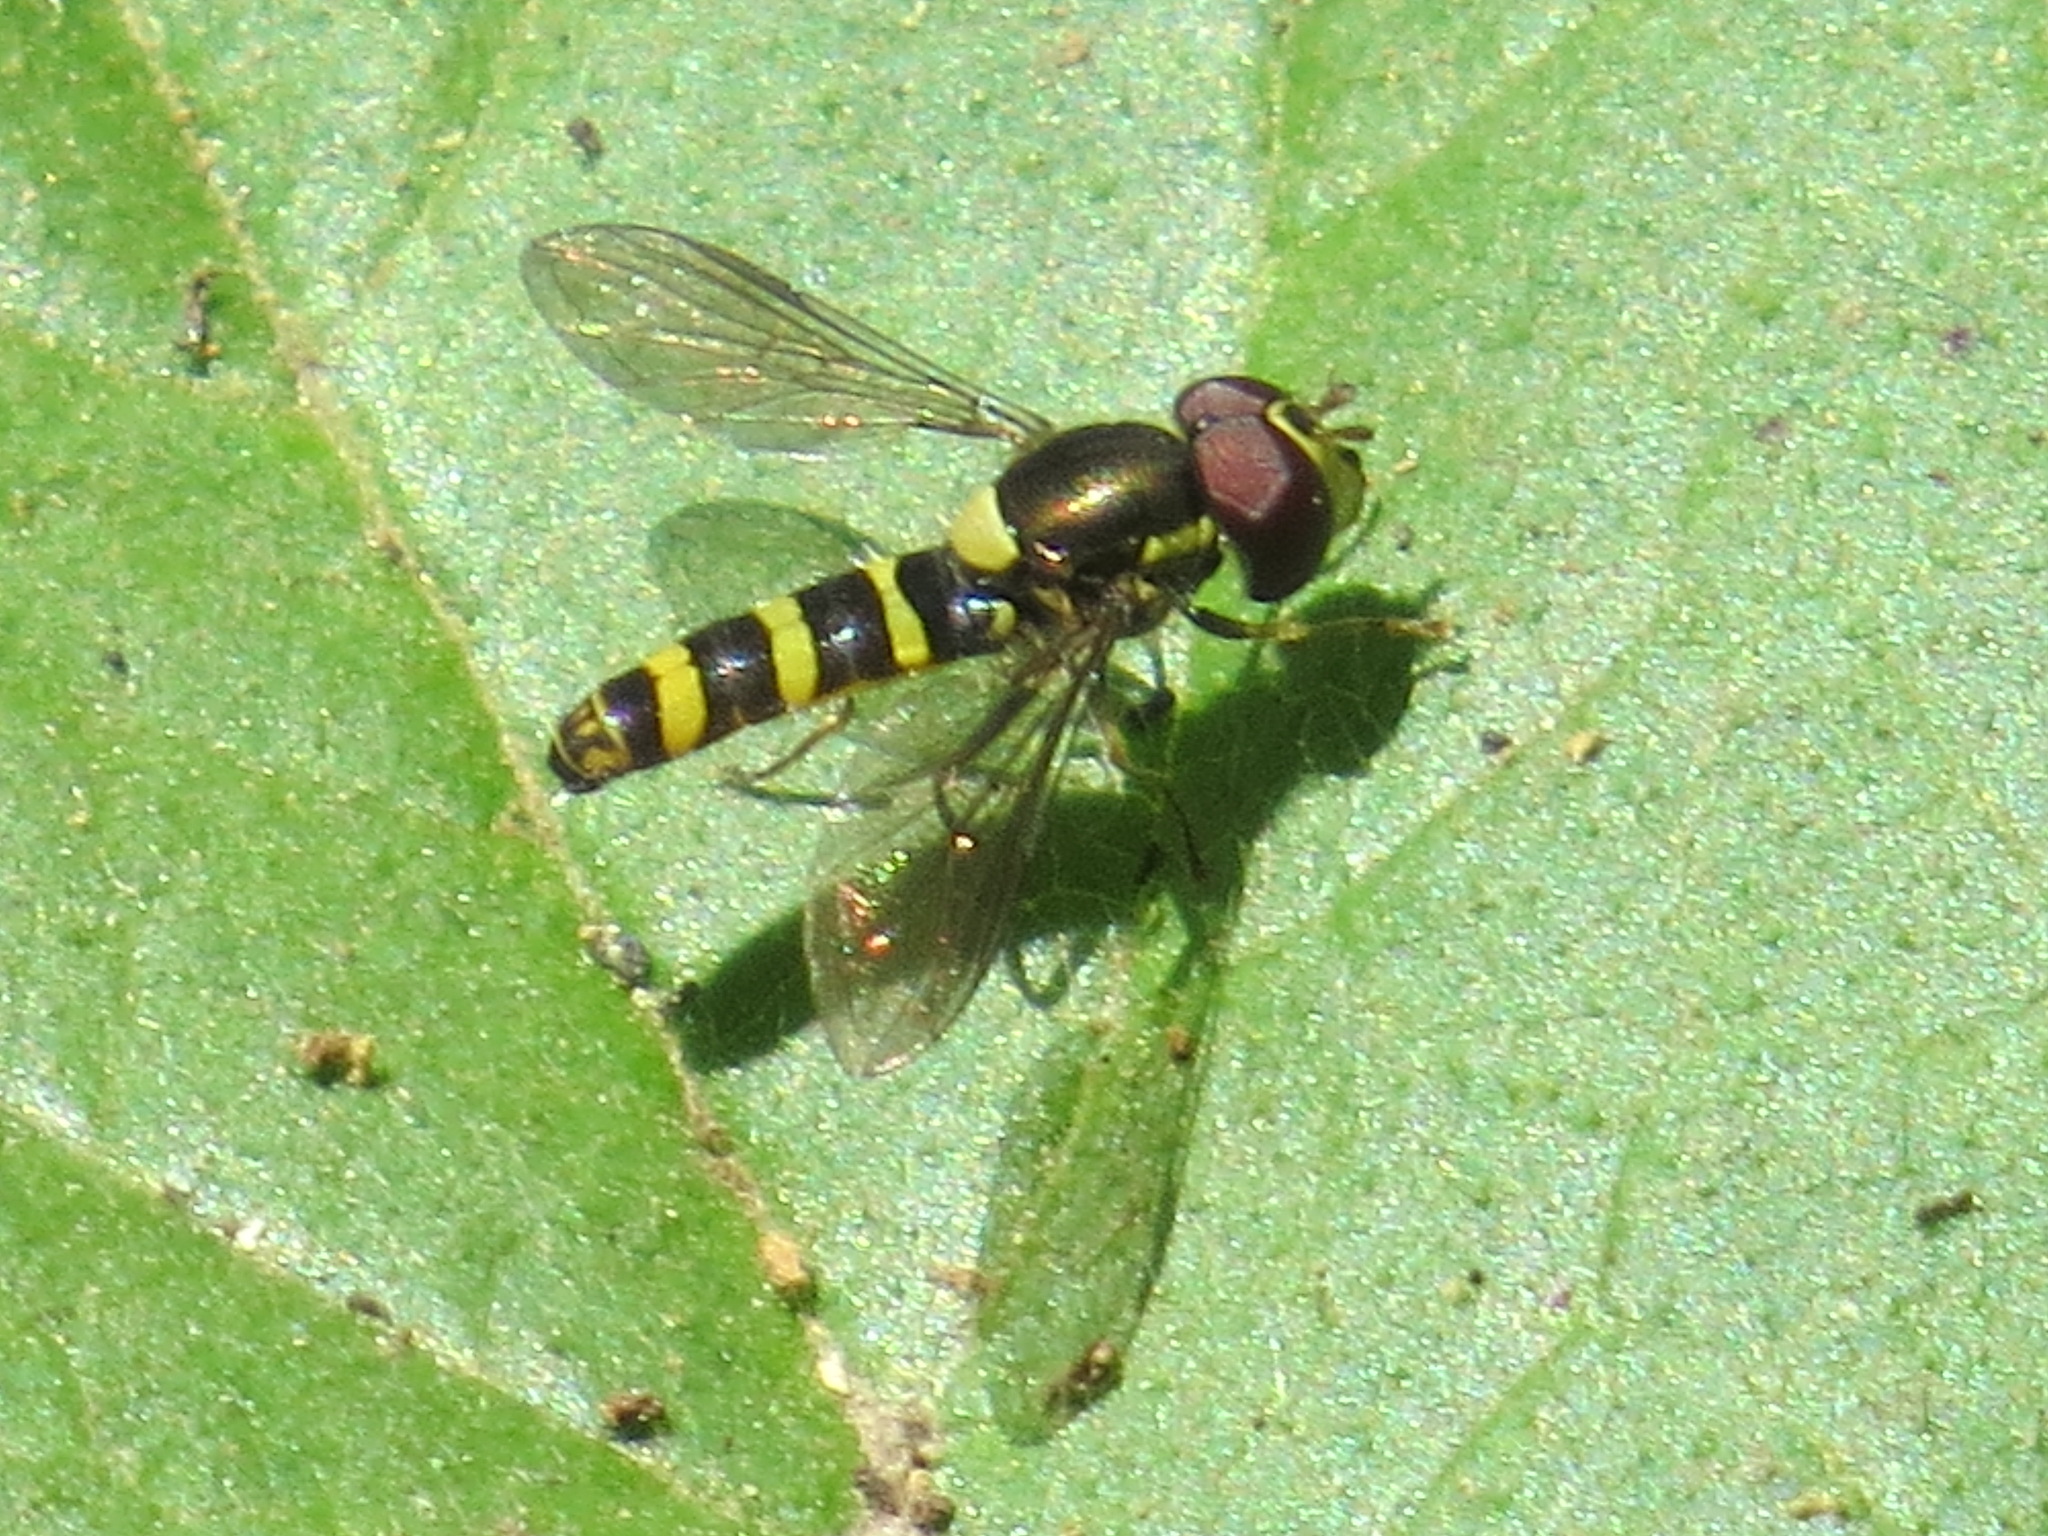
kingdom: Animalia
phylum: Arthropoda
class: Insecta
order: Diptera
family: Syrphidae
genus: Fazia
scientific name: Fazia micrura
